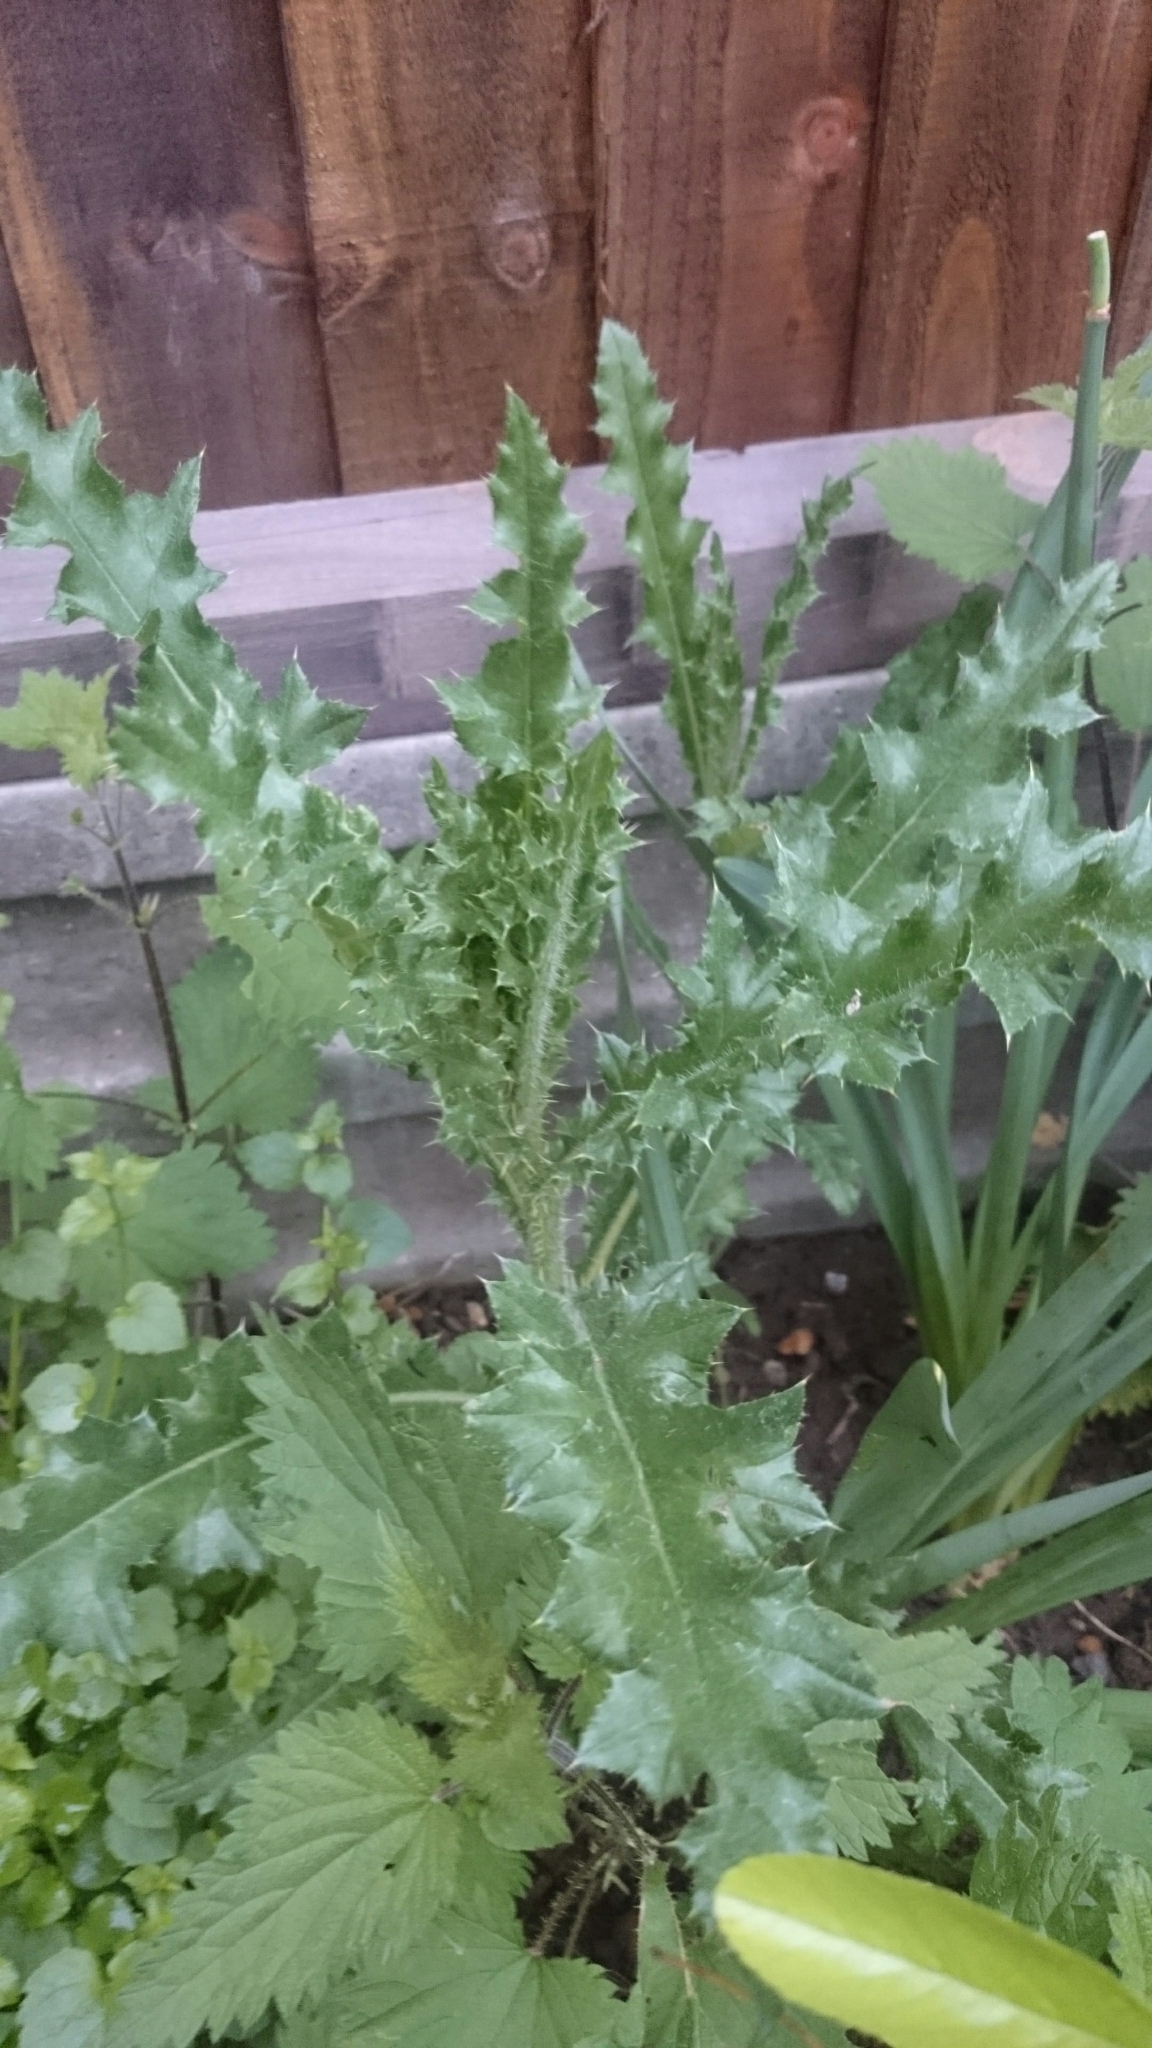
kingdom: Plantae
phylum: Tracheophyta
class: Magnoliopsida
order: Asterales
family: Asteraceae
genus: Cirsium
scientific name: Cirsium arvense
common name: Creeping thistle
